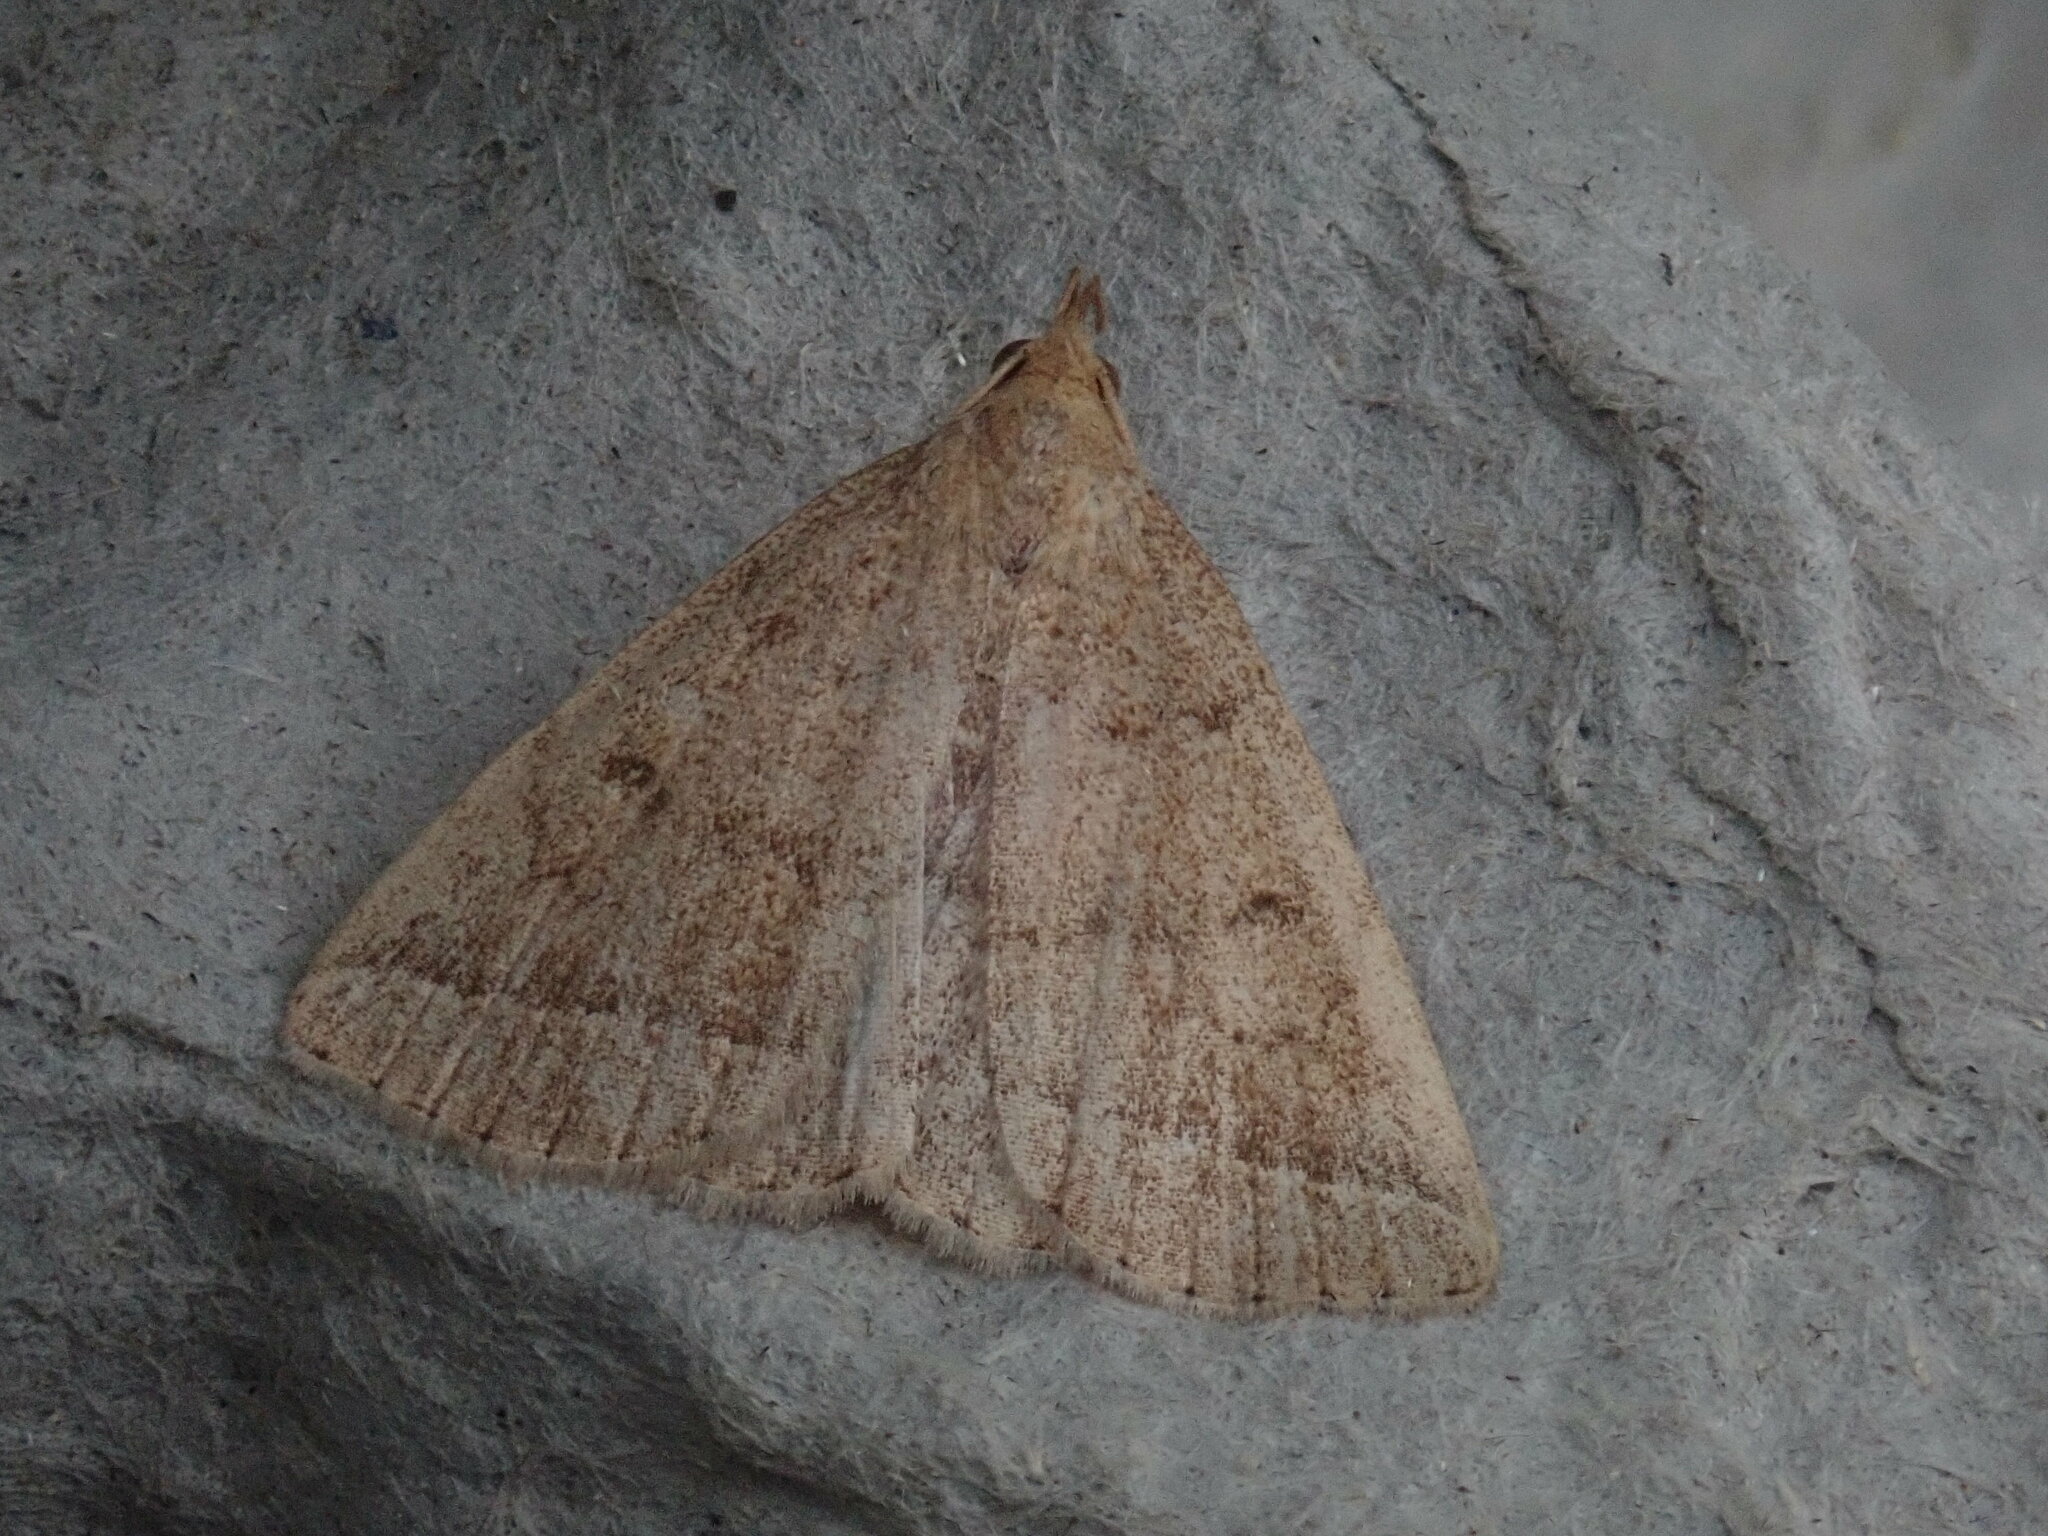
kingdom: Animalia
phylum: Arthropoda
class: Insecta
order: Lepidoptera
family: Erebidae
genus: Zanclognatha
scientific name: Zanclognatha jacchusalis
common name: Yellowish zanclognatha
